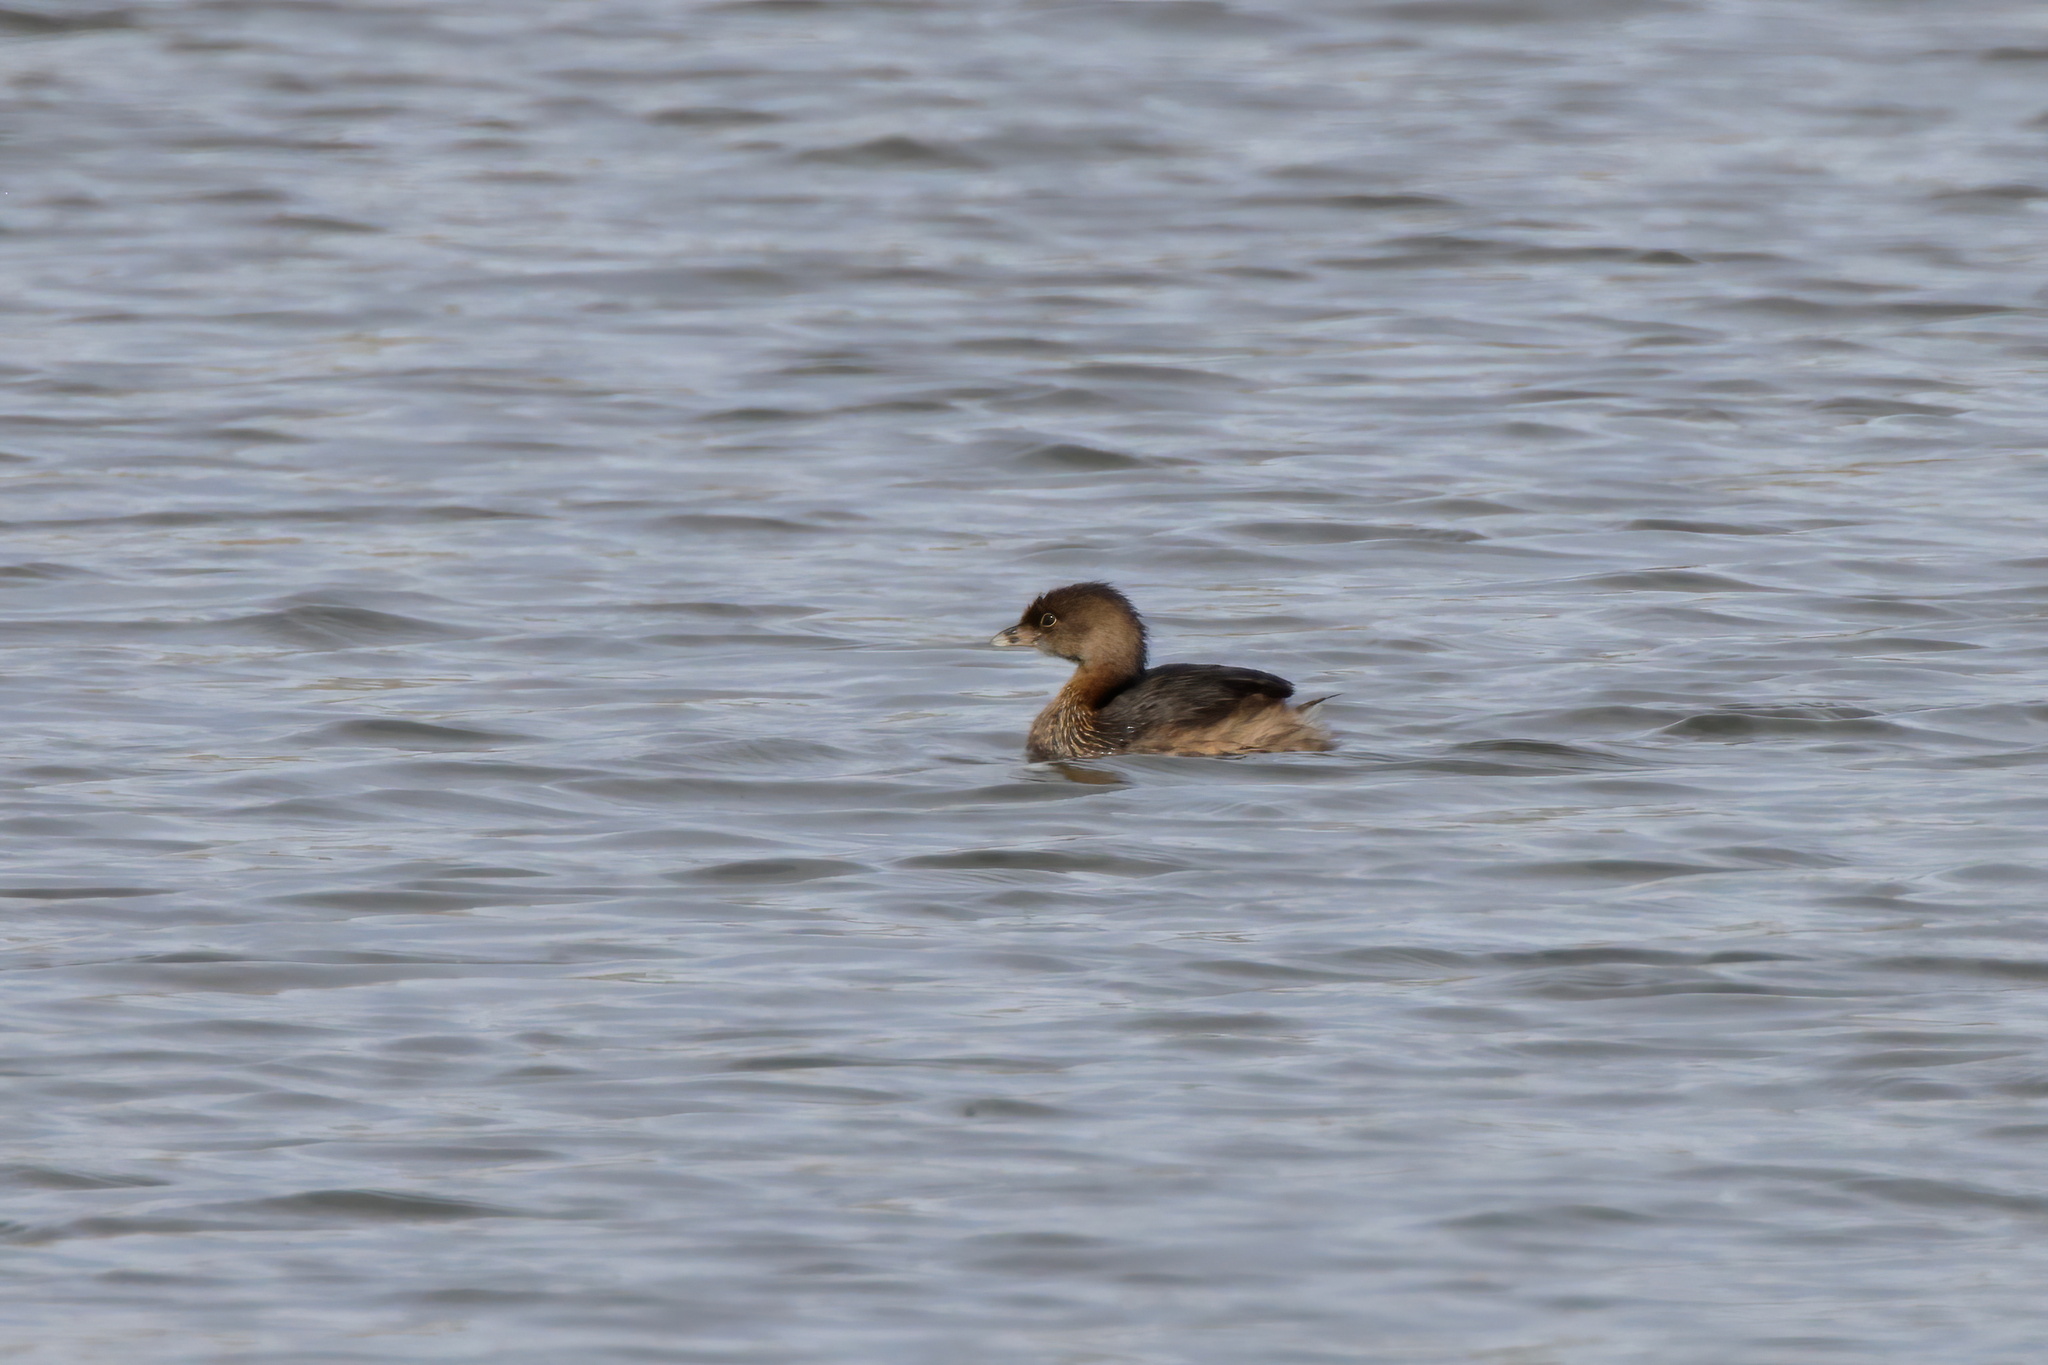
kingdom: Animalia
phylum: Chordata
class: Aves
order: Podicipediformes
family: Podicipedidae
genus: Podilymbus
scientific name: Podilymbus podiceps
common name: Pied-billed grebe
